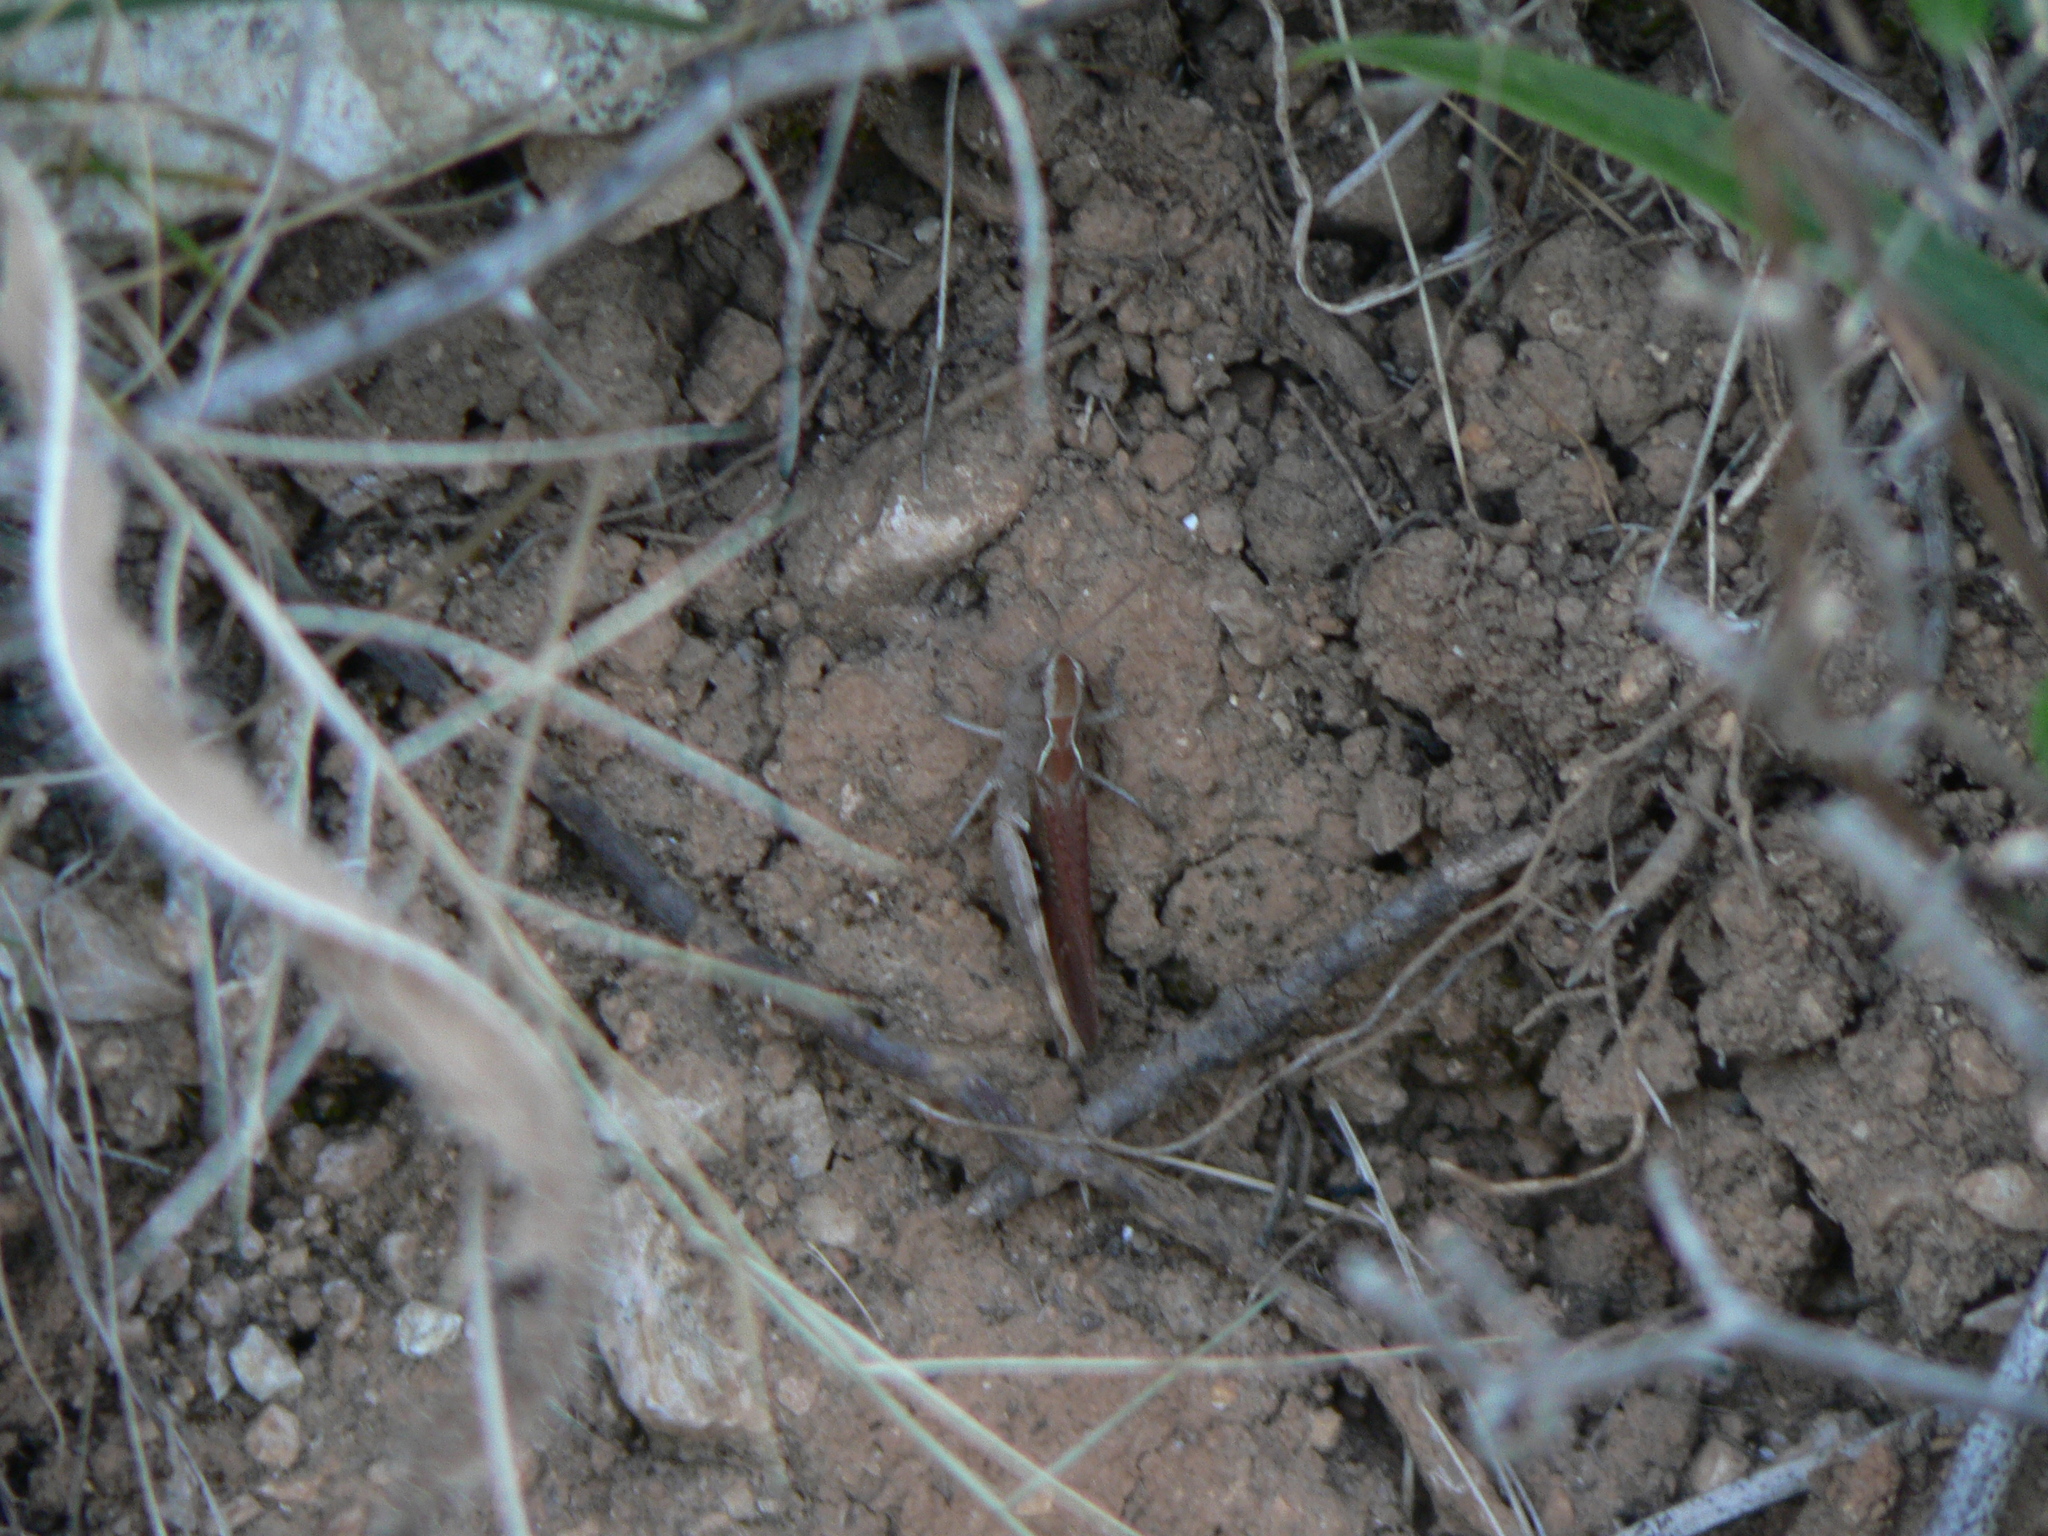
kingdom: Animalia
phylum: Arthropoda
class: Insecta
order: Orthoptera
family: Acrididae
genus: Chorthippus
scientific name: Chorthippus brunneus
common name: Field grasshopper
